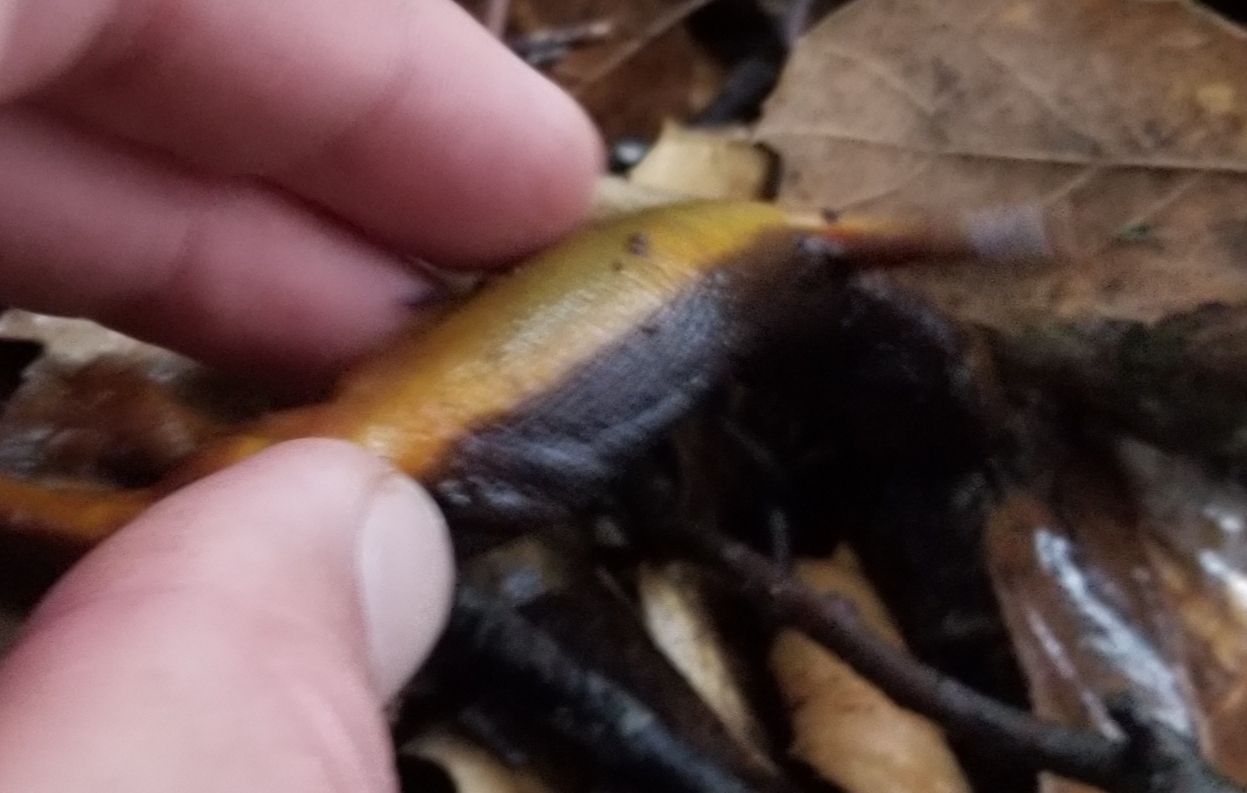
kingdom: Animalia
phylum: Chordata
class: Amphibia
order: Caudata
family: Salamandridae
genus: Taricha
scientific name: Taricha torosa
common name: California newt
